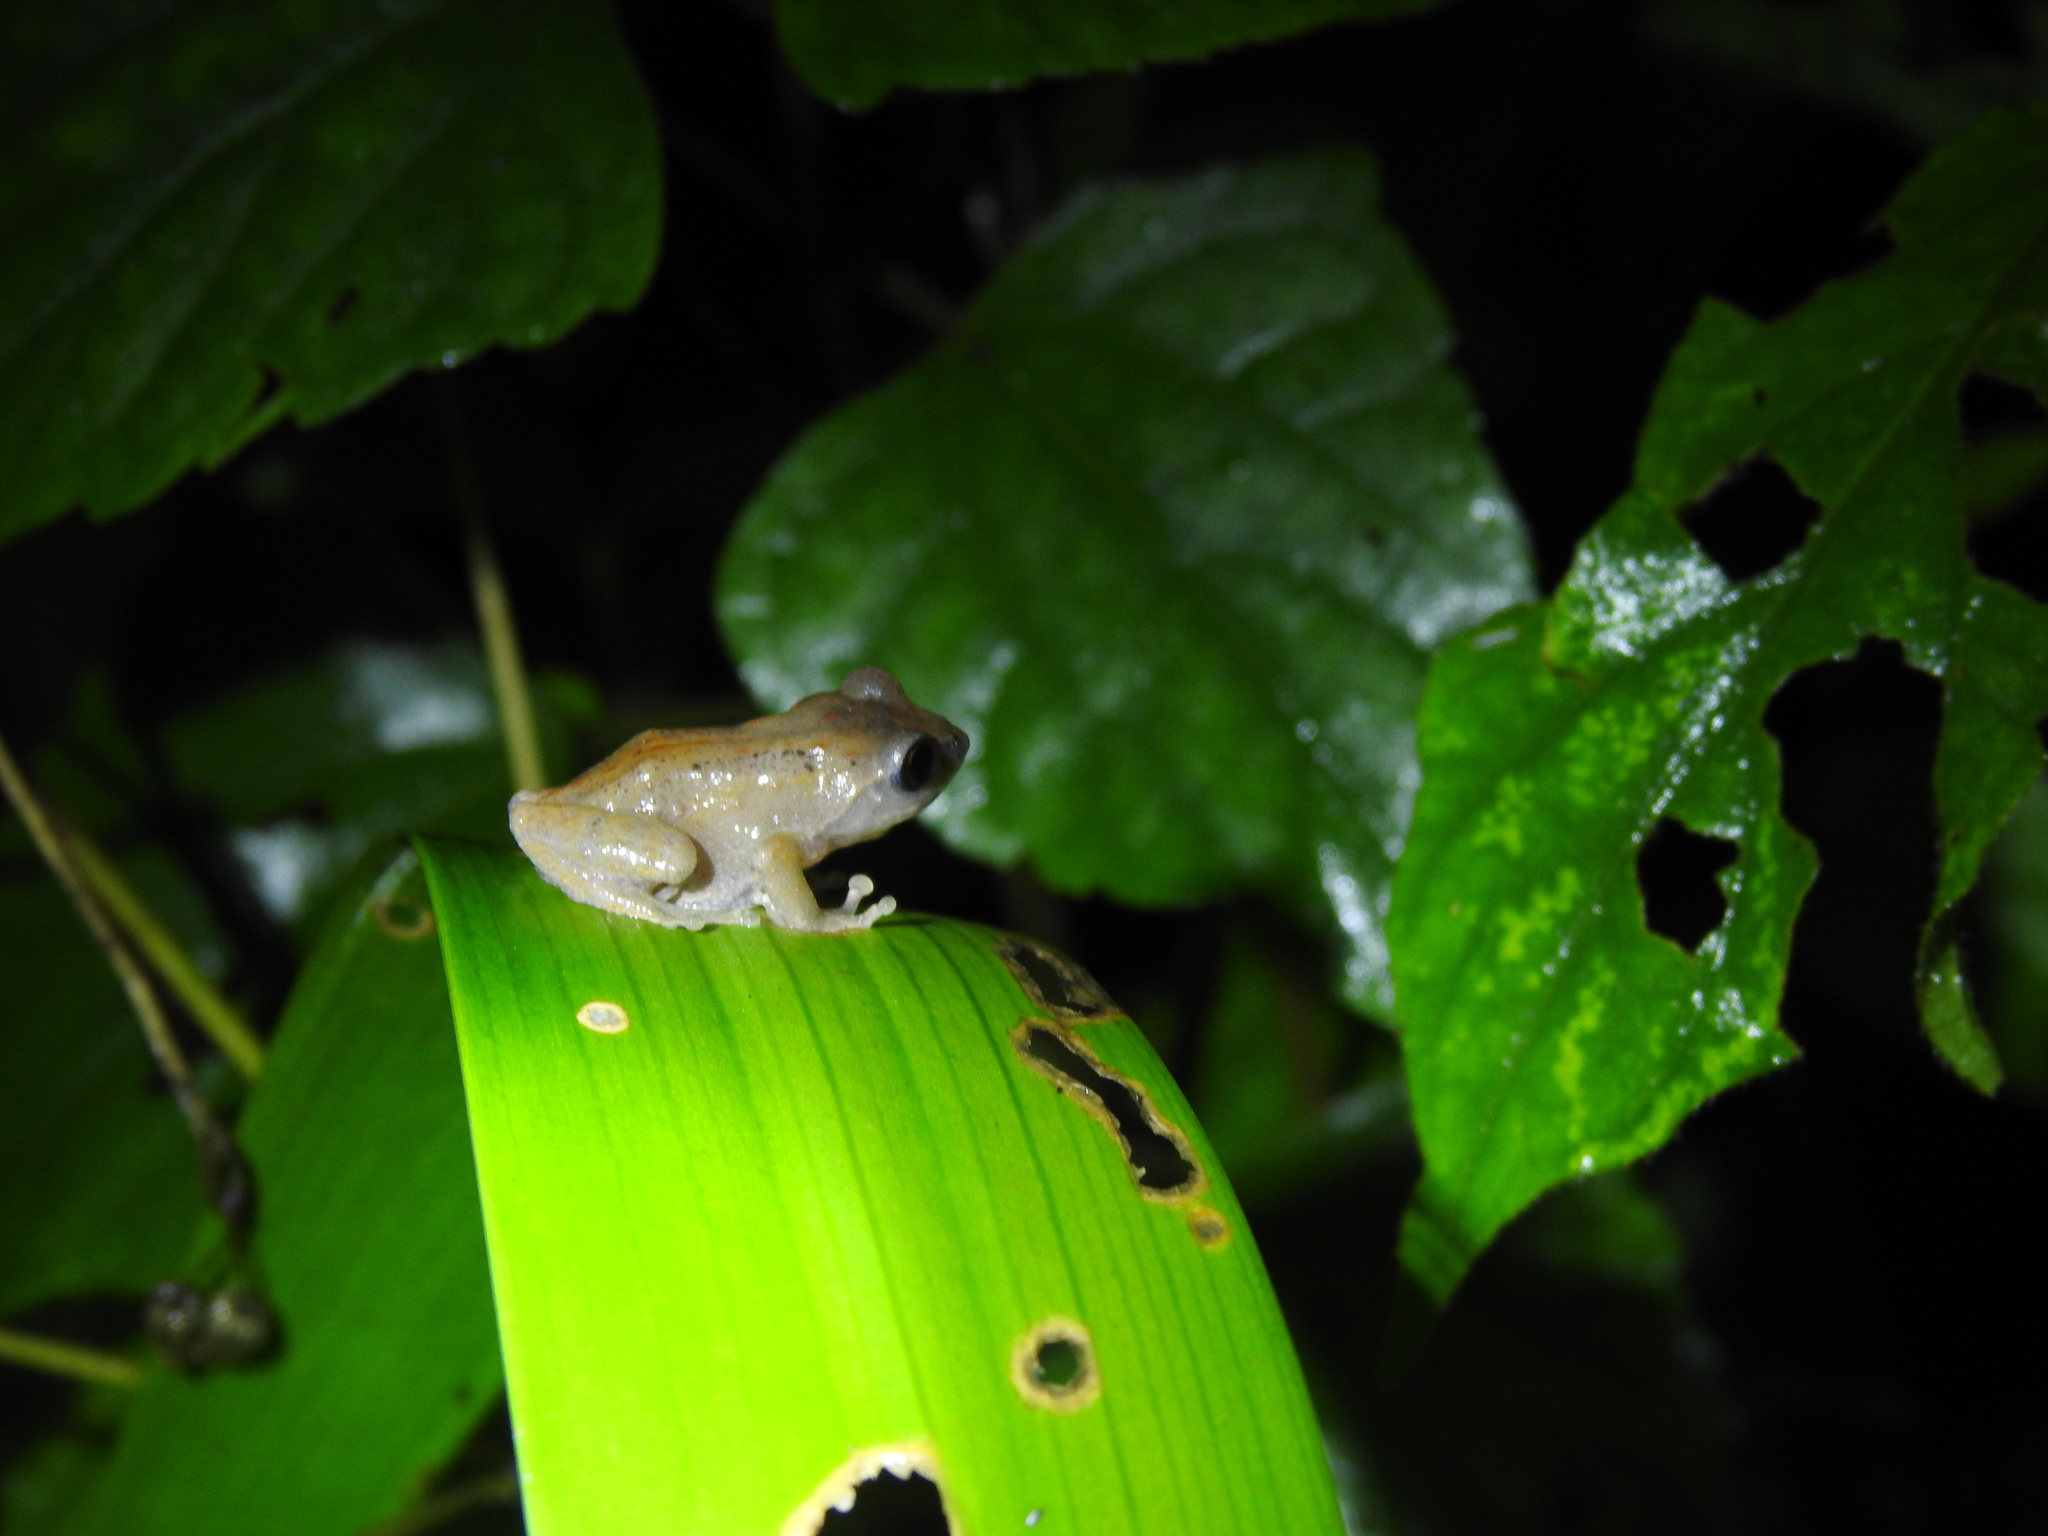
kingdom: Animalia
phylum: Chordata
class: Amphibia
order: Anura
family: Rhacophoridae
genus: Raorchestes
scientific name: Raorchestes dubois
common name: Koadaikanal bush frog
